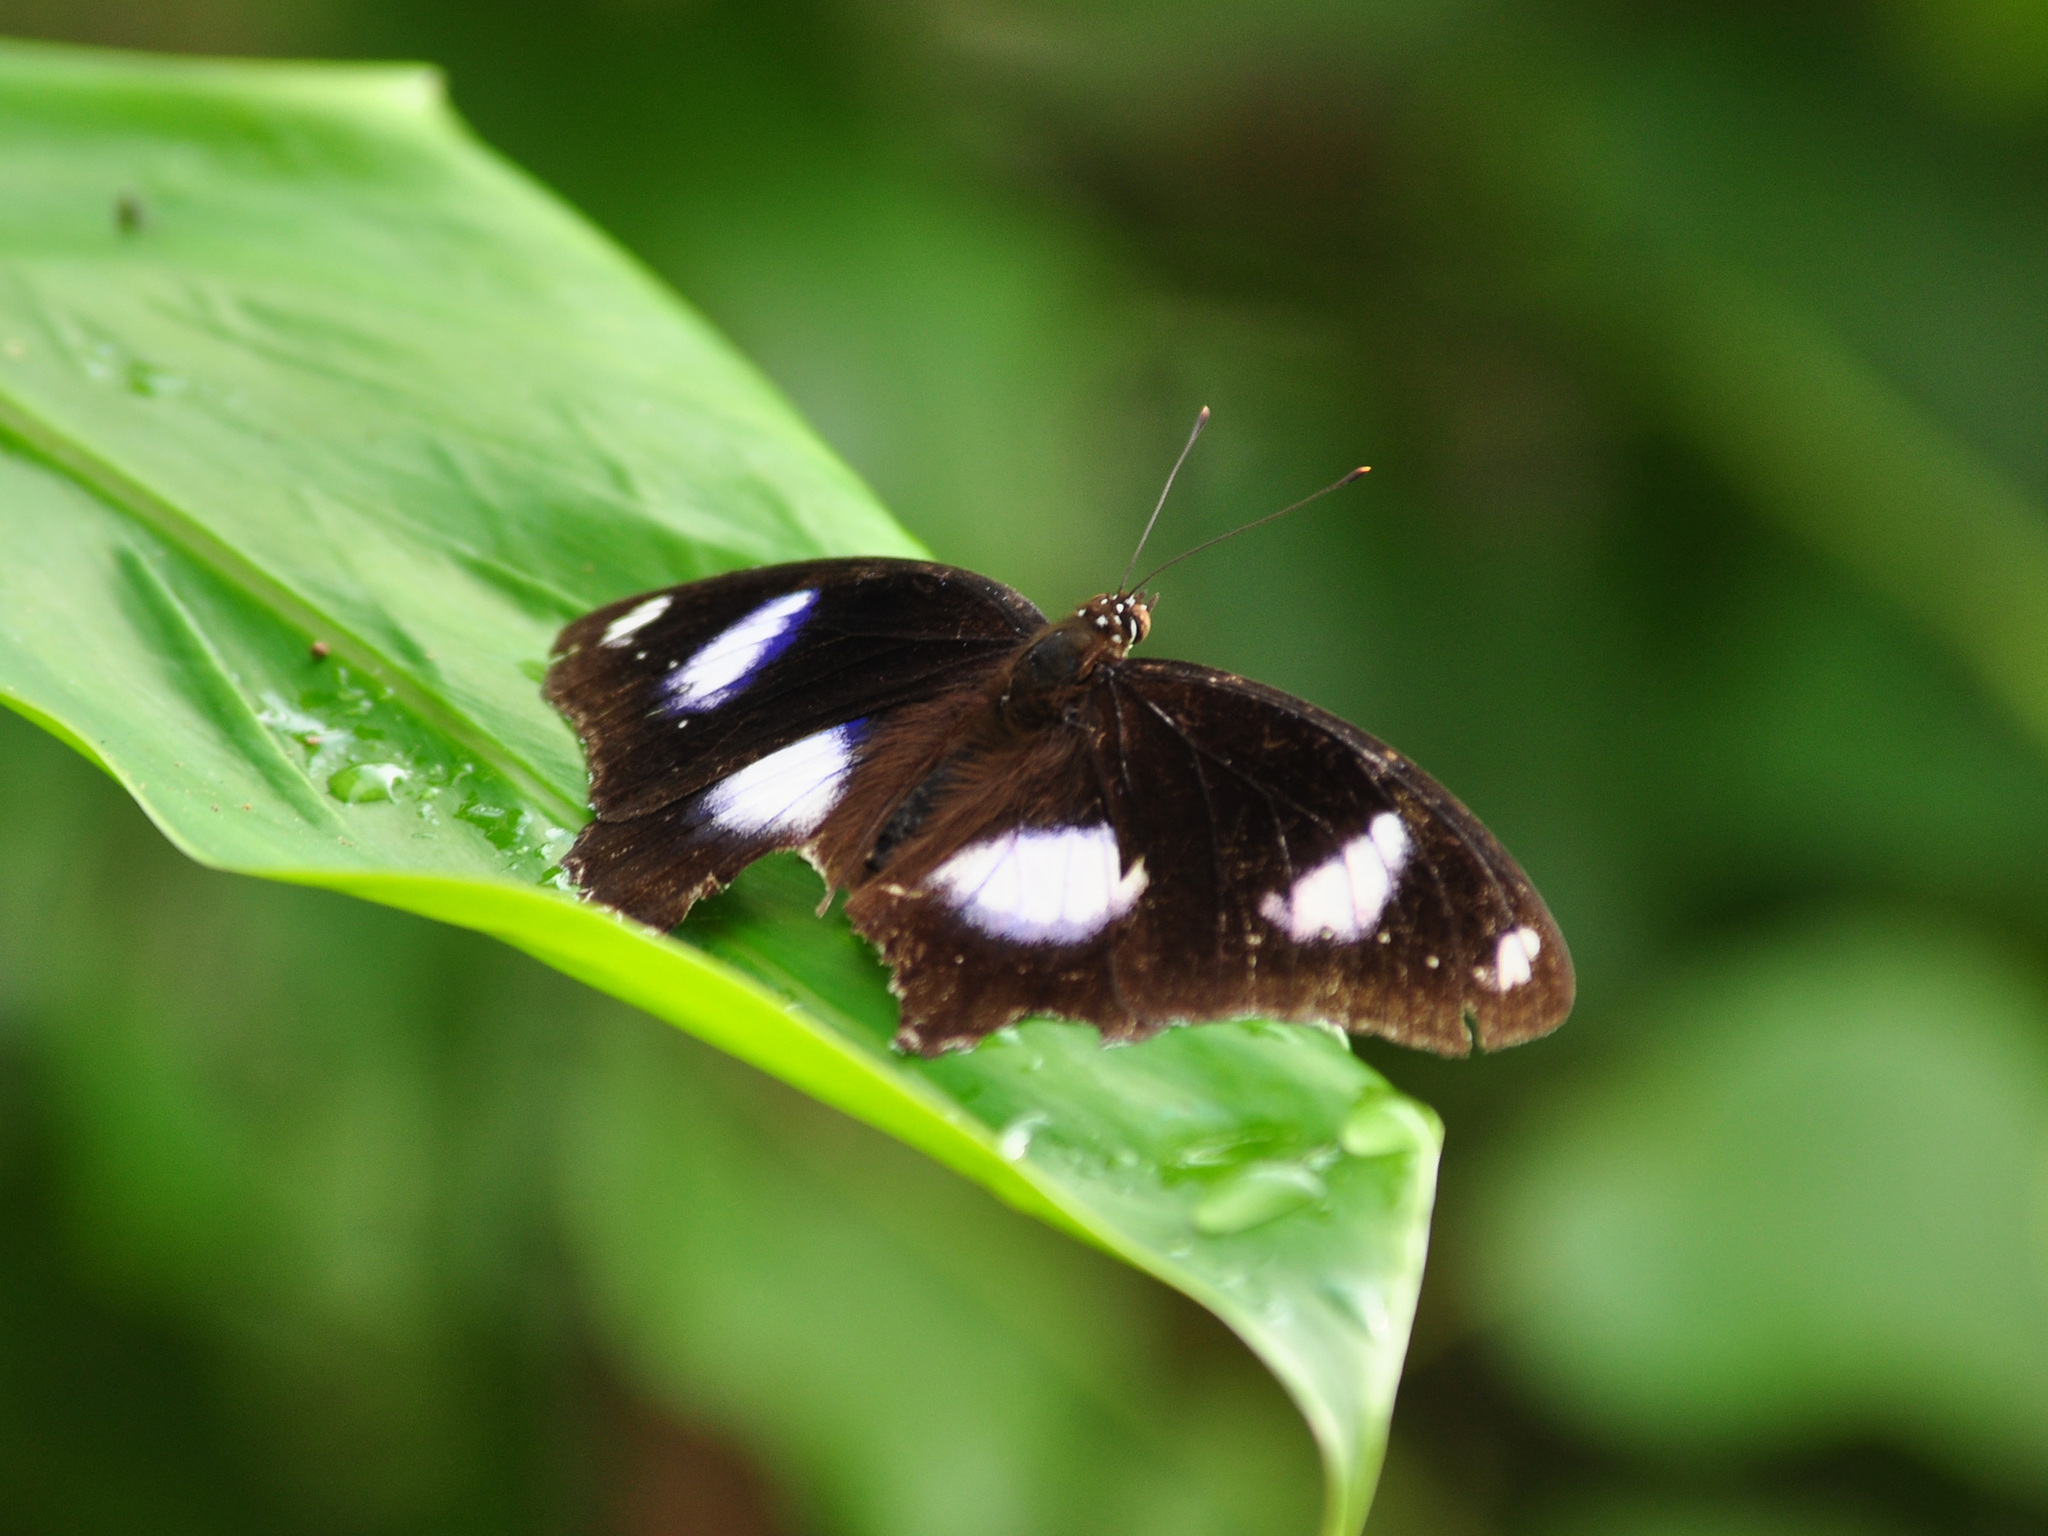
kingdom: Animalia
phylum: Arthropoda
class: Insecta
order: Lepidoptera
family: Nymphalidae
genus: Hypolimnas
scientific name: Hypolimnas bolina
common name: Great eggfly
